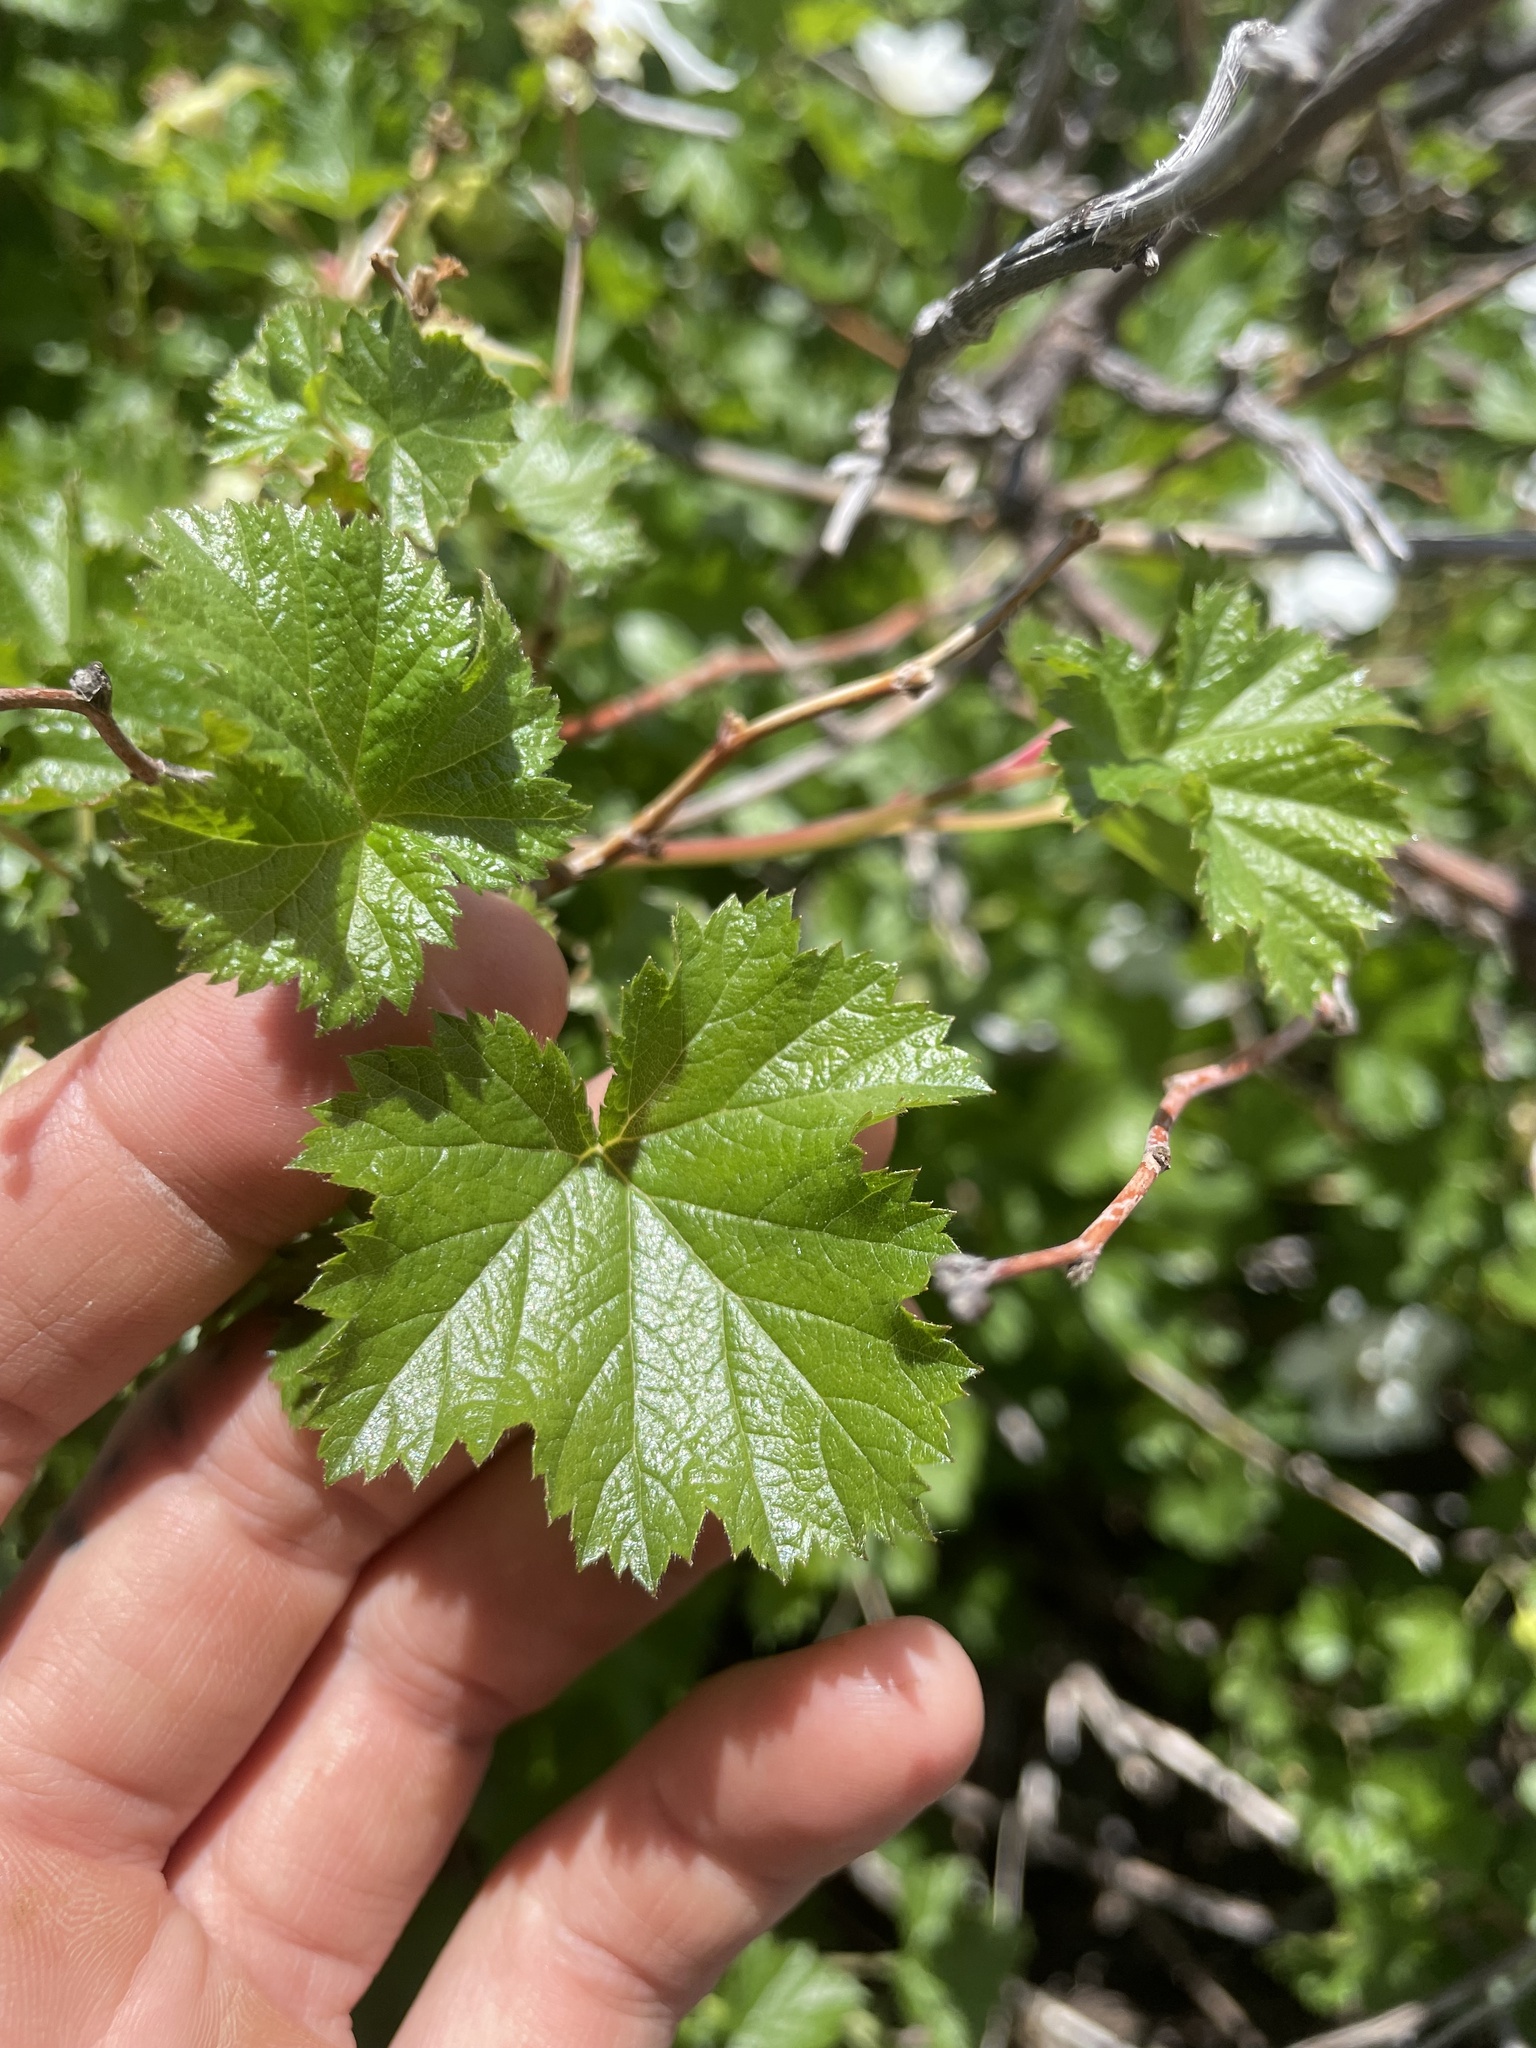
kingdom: Plantae
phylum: Tracheophyta
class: Magnoliopsida
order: Rosales
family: Rosaceae
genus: Rubus
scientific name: Rubus deliciosus
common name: Rocky mountain raspberry
